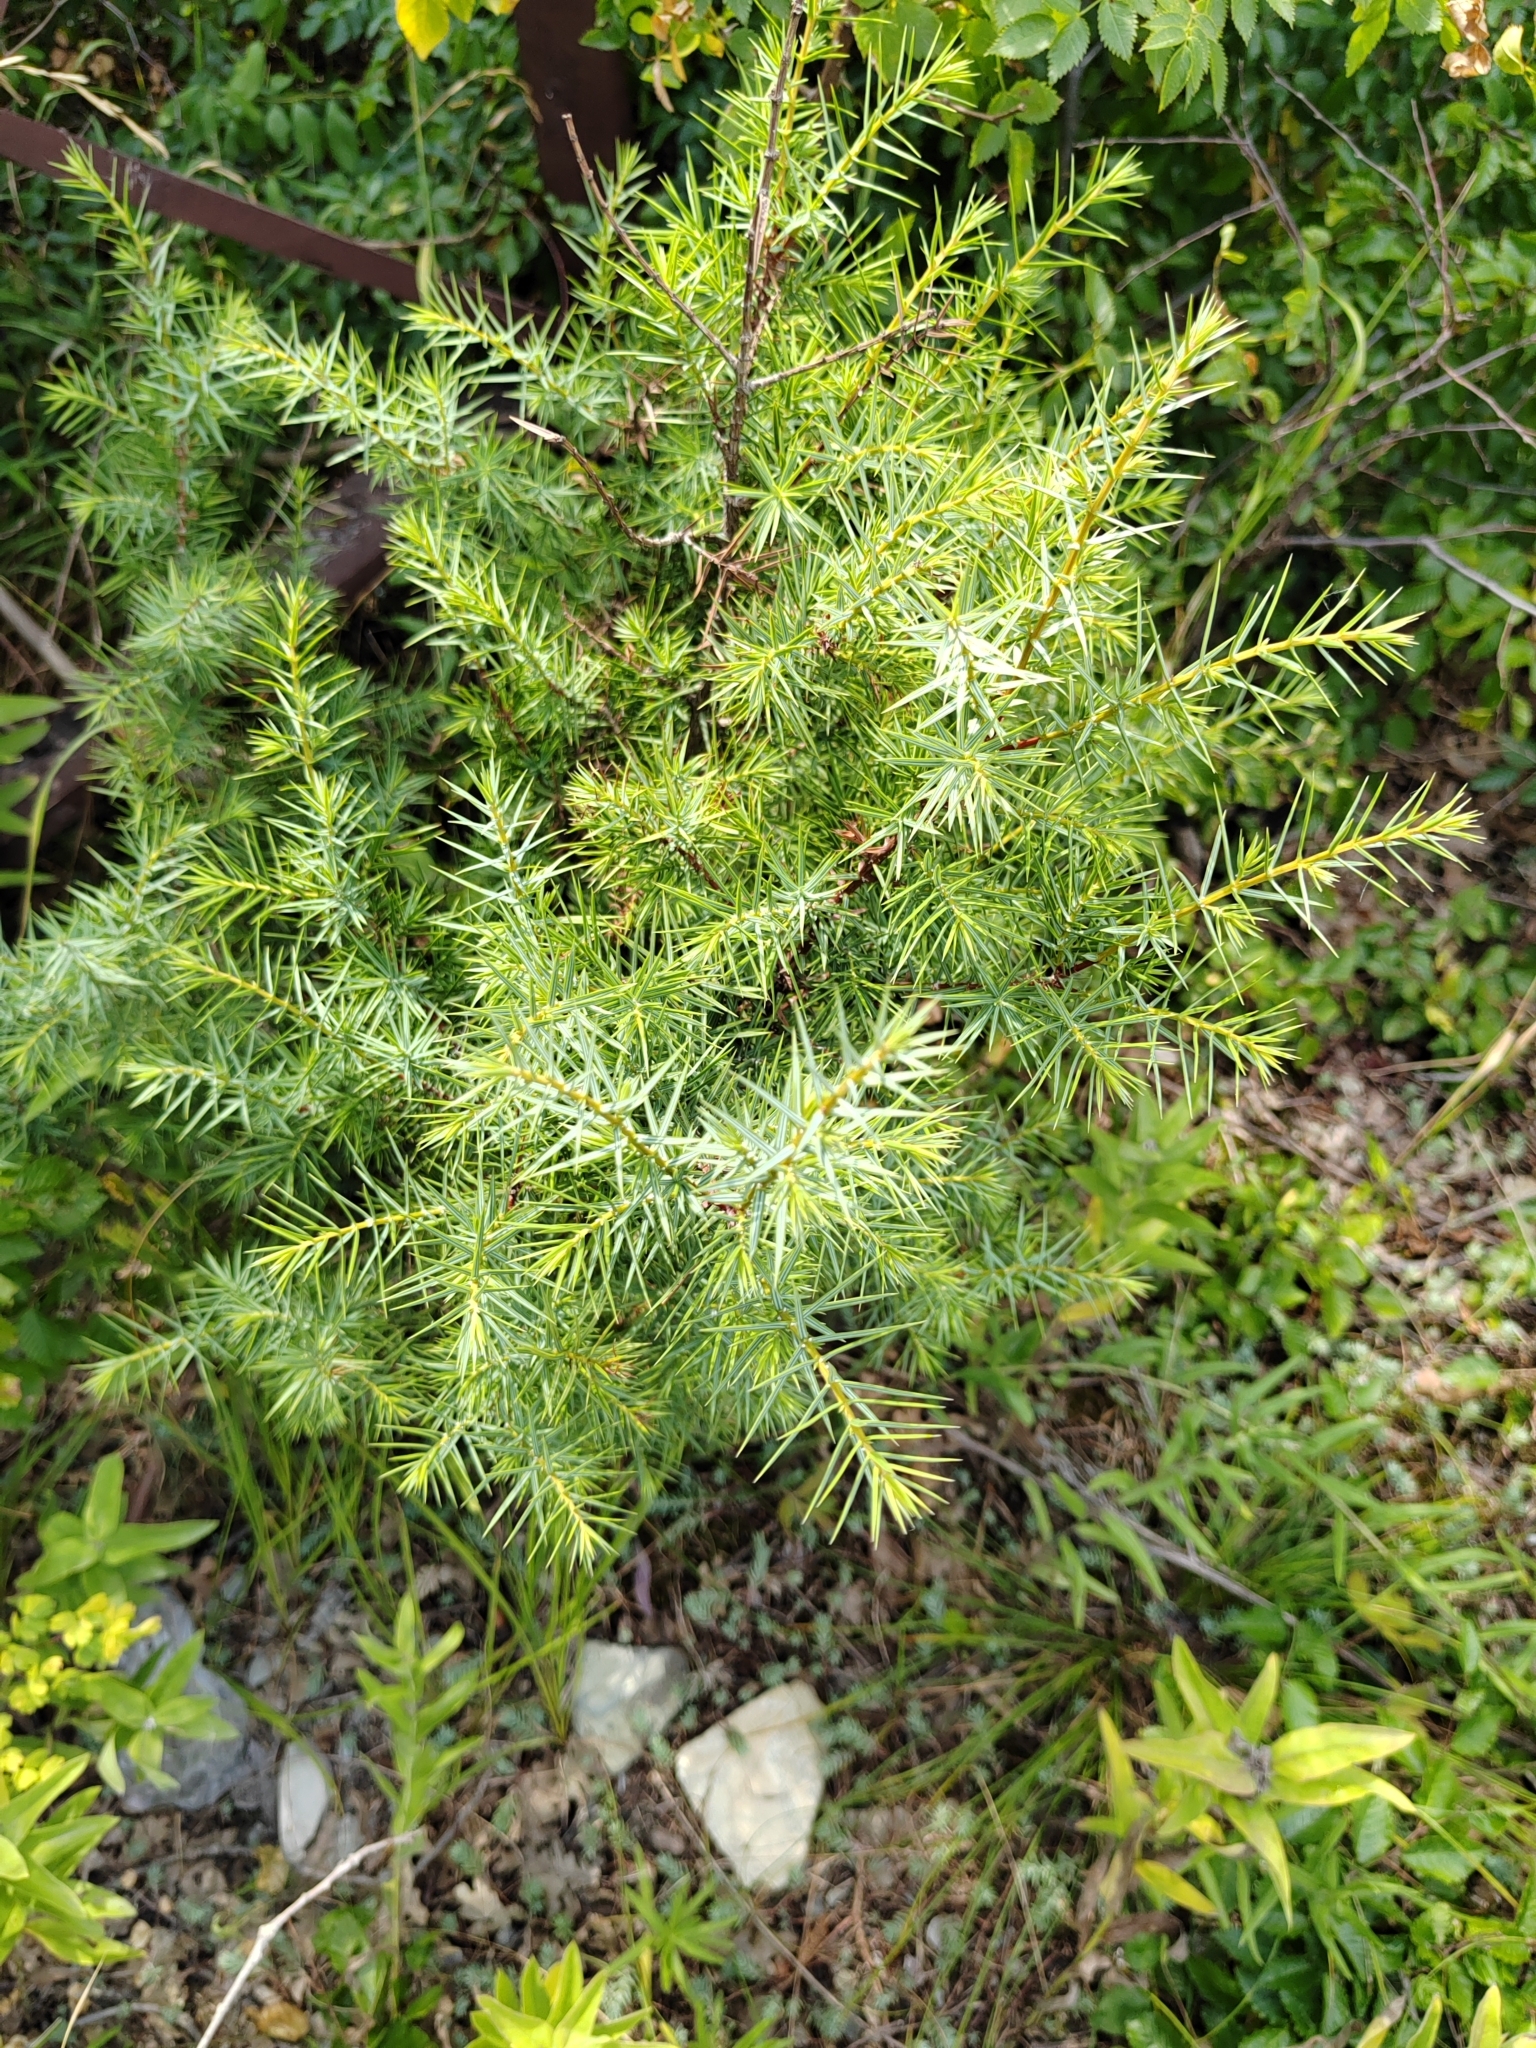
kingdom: Plantae
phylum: Tracheophyta
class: Pinopsida
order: Pinales
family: Cupressaceae
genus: Juniperus
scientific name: Juniperus oxycedrus
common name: Prickly juniper
